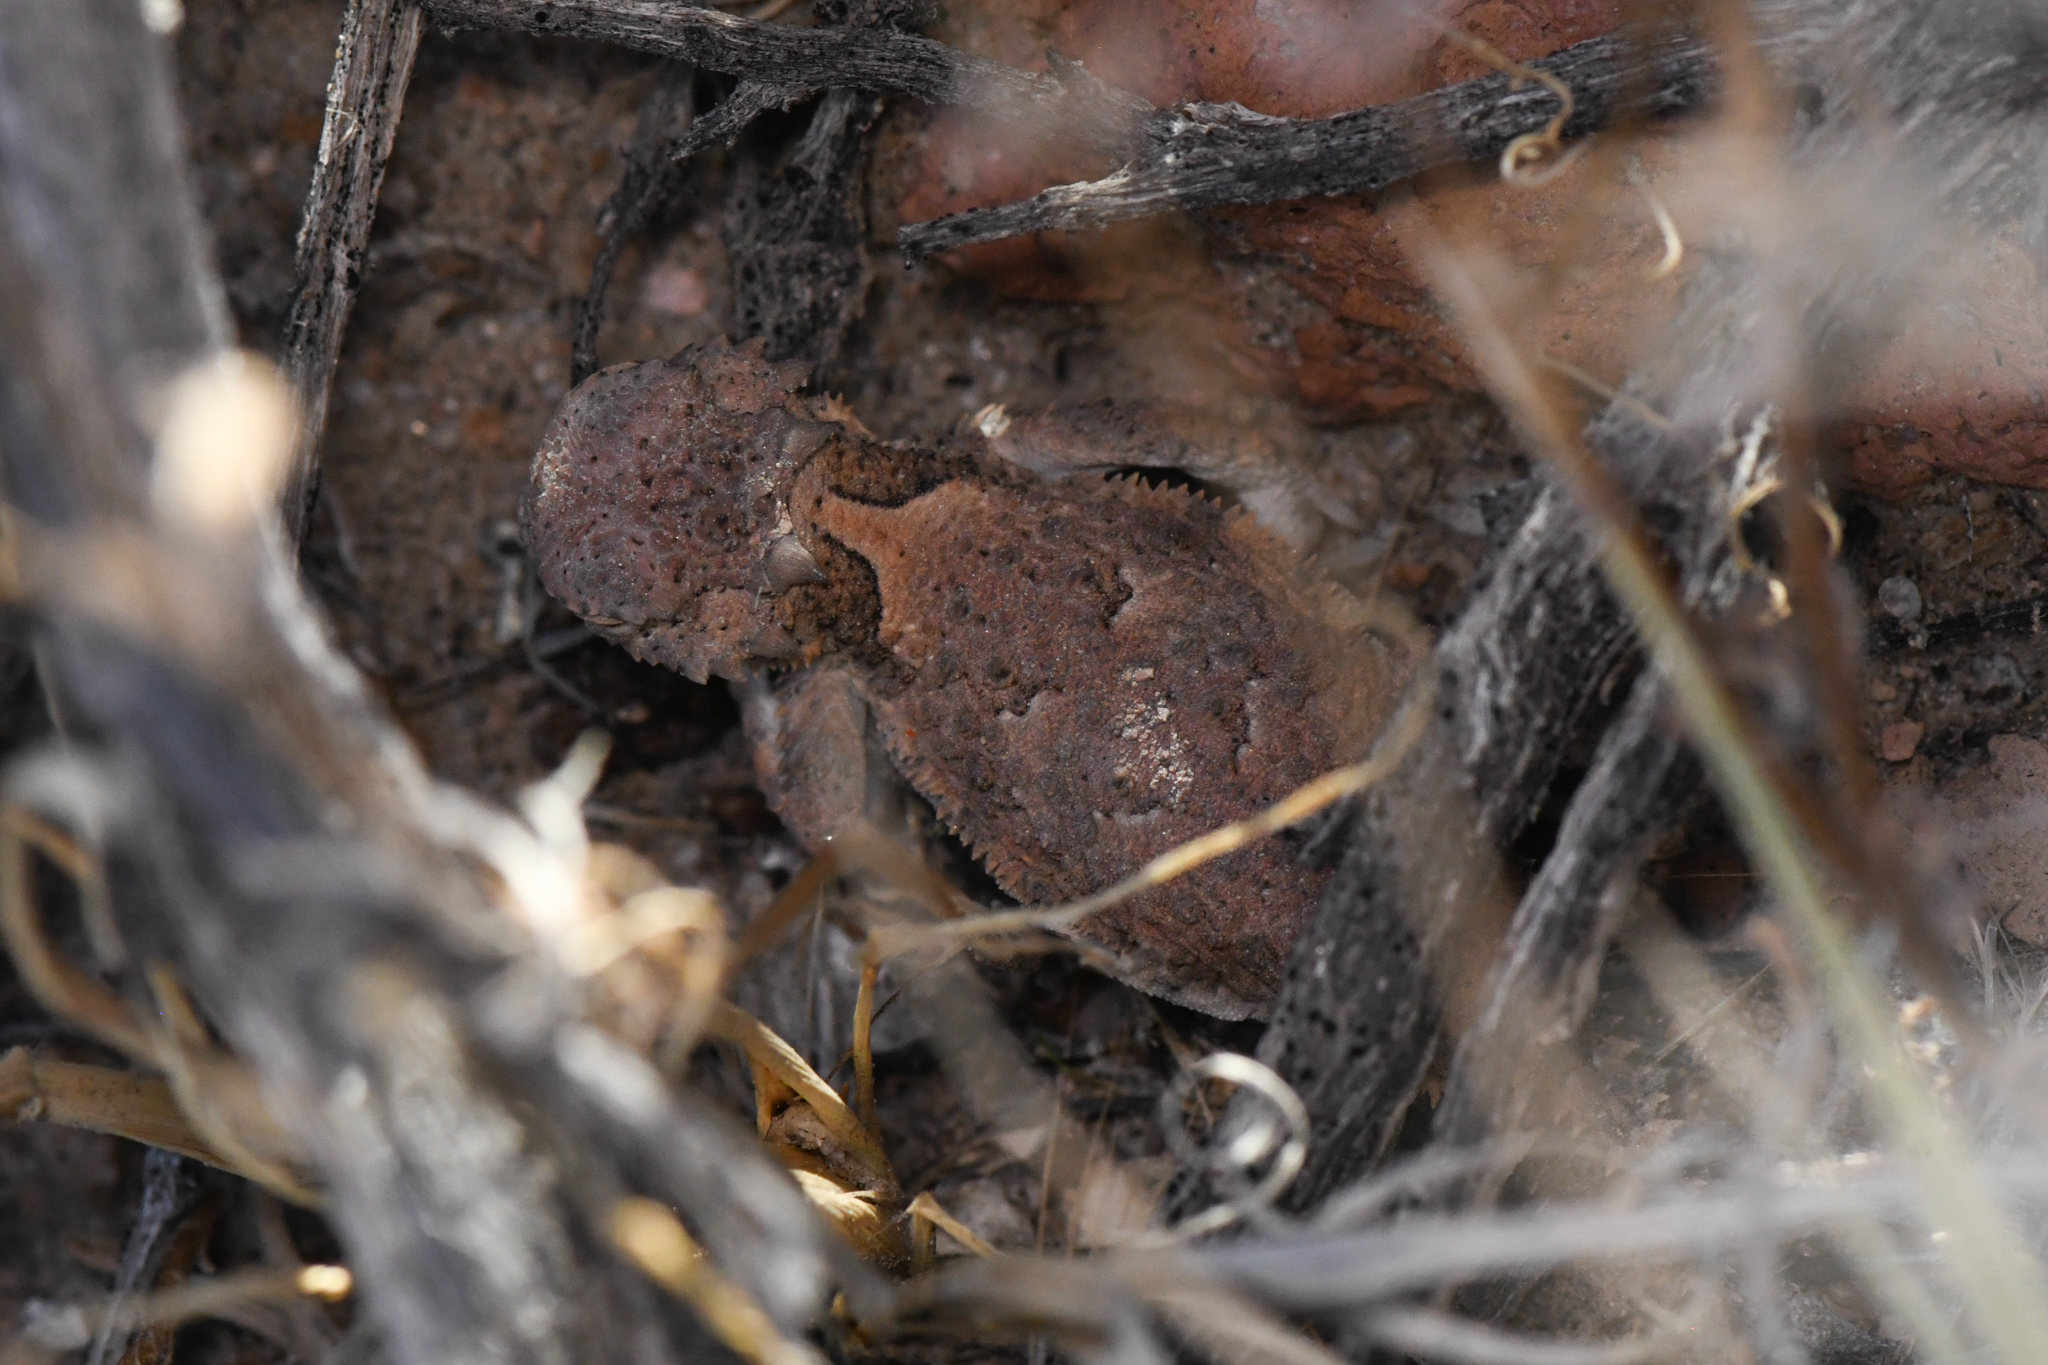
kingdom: Animalia
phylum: Chordata
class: Squamata
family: Phrynosomatidae
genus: Phrynosoma
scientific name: Phrynosoma platyrhinos
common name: Desert horned lizard
